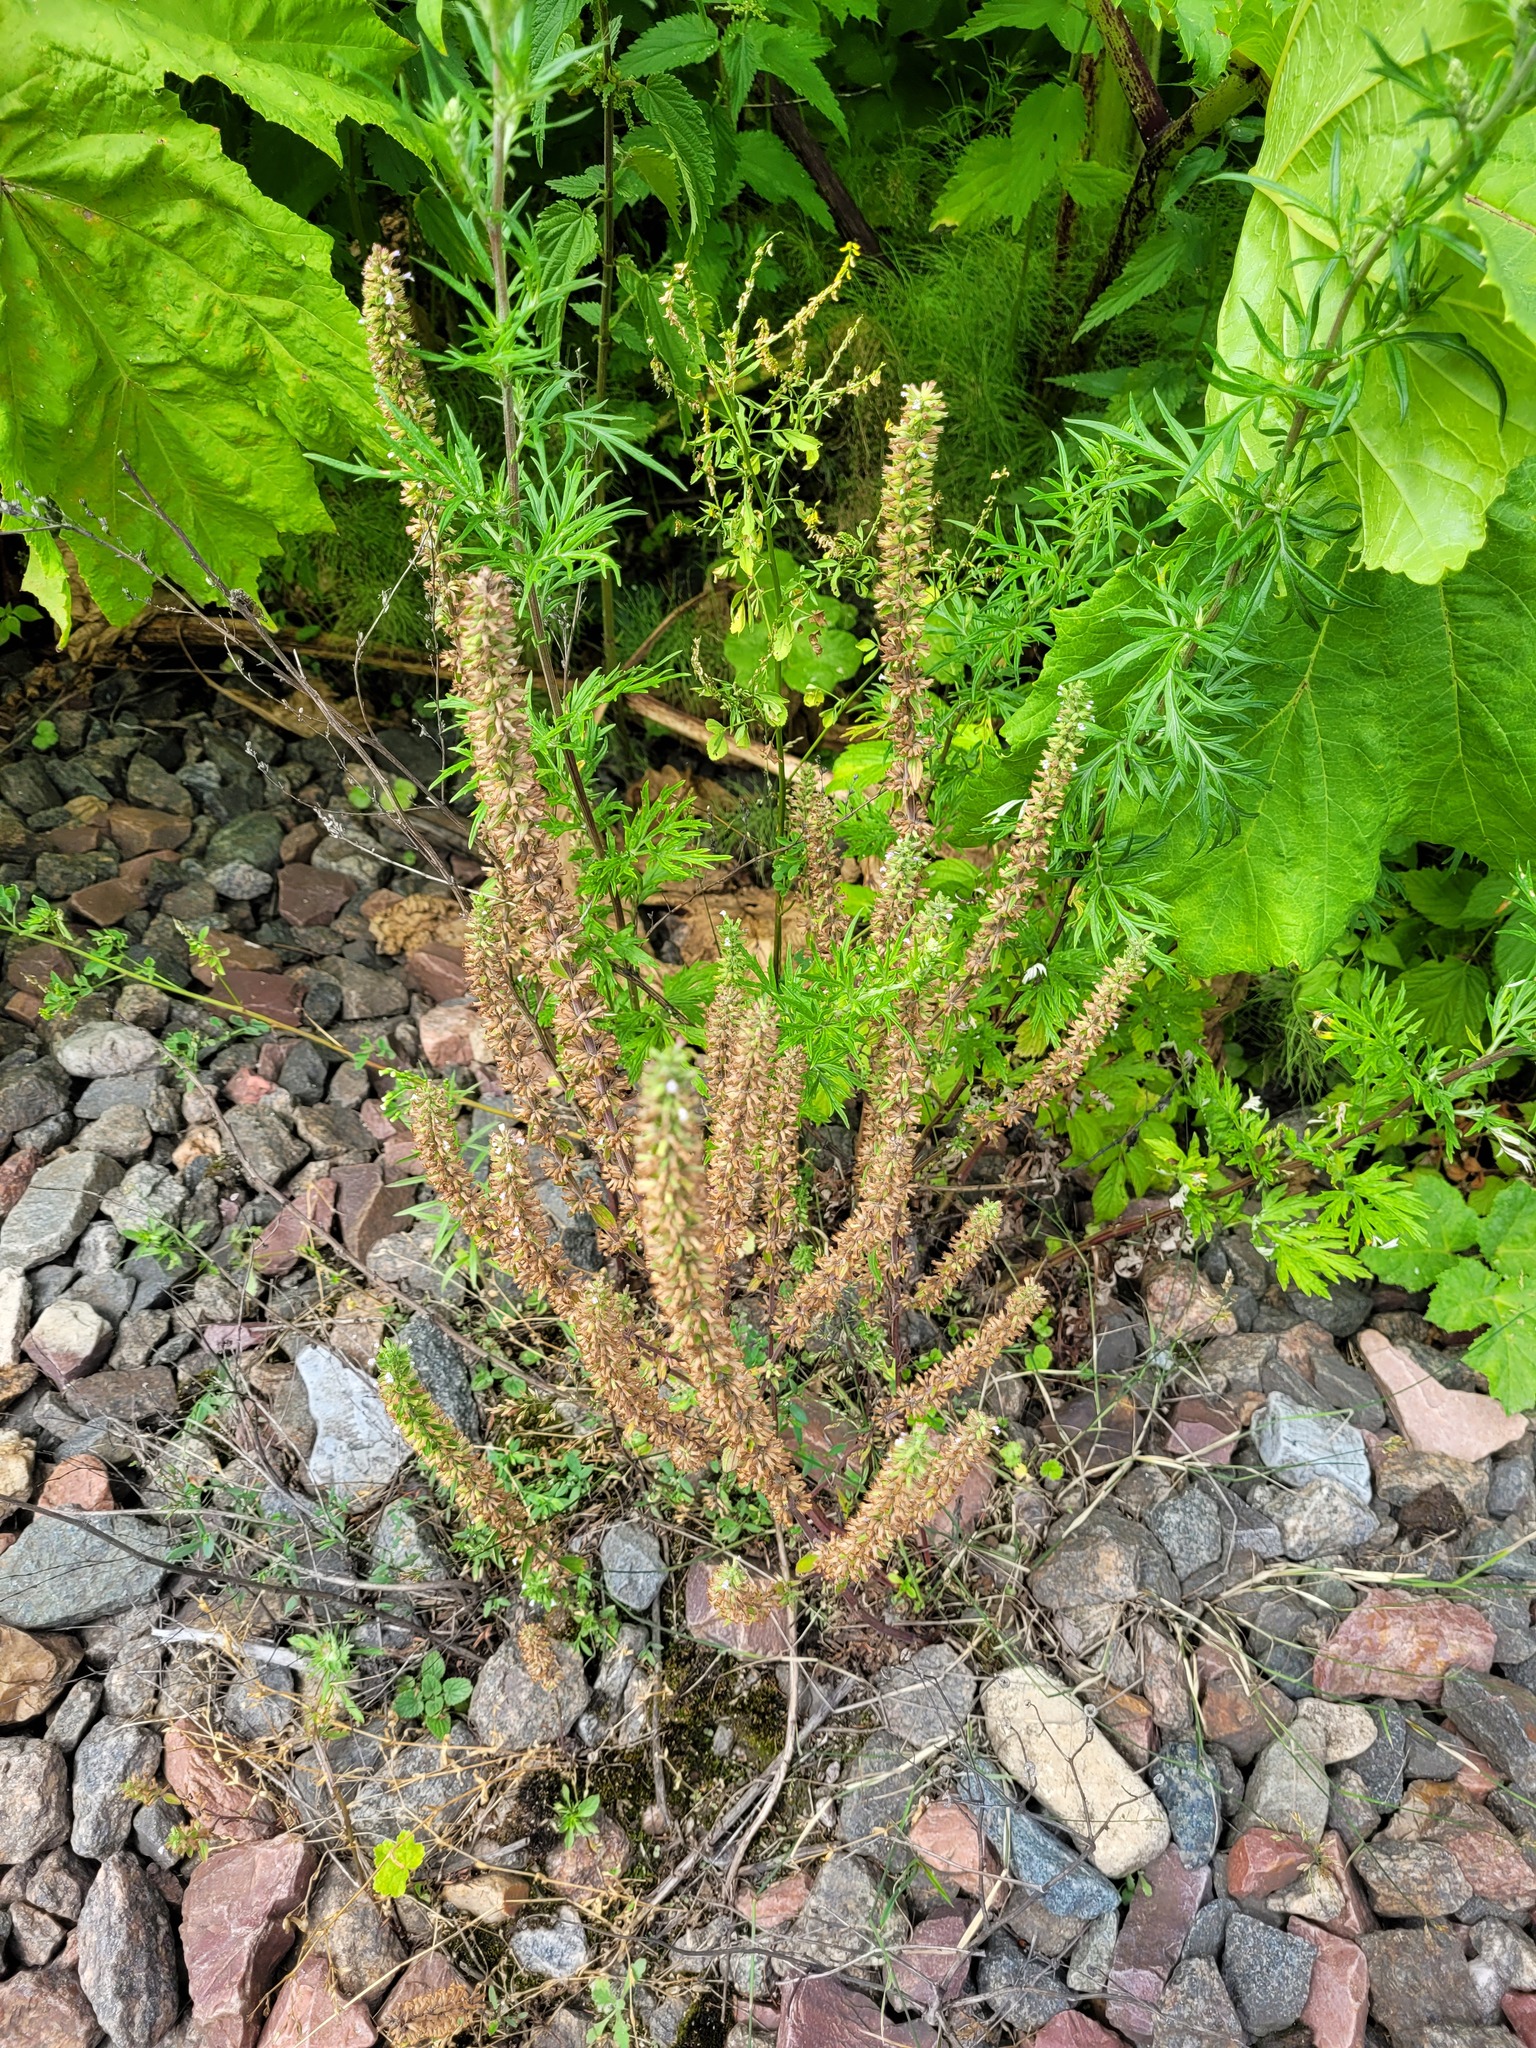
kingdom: Plantae
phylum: Tracheophyta
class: Magnoliopsida
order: Lamiales
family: Lamiaceae
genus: Dracocephalum
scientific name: Dracocephalum thymiflorum
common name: Thymeleaf dragonhead
